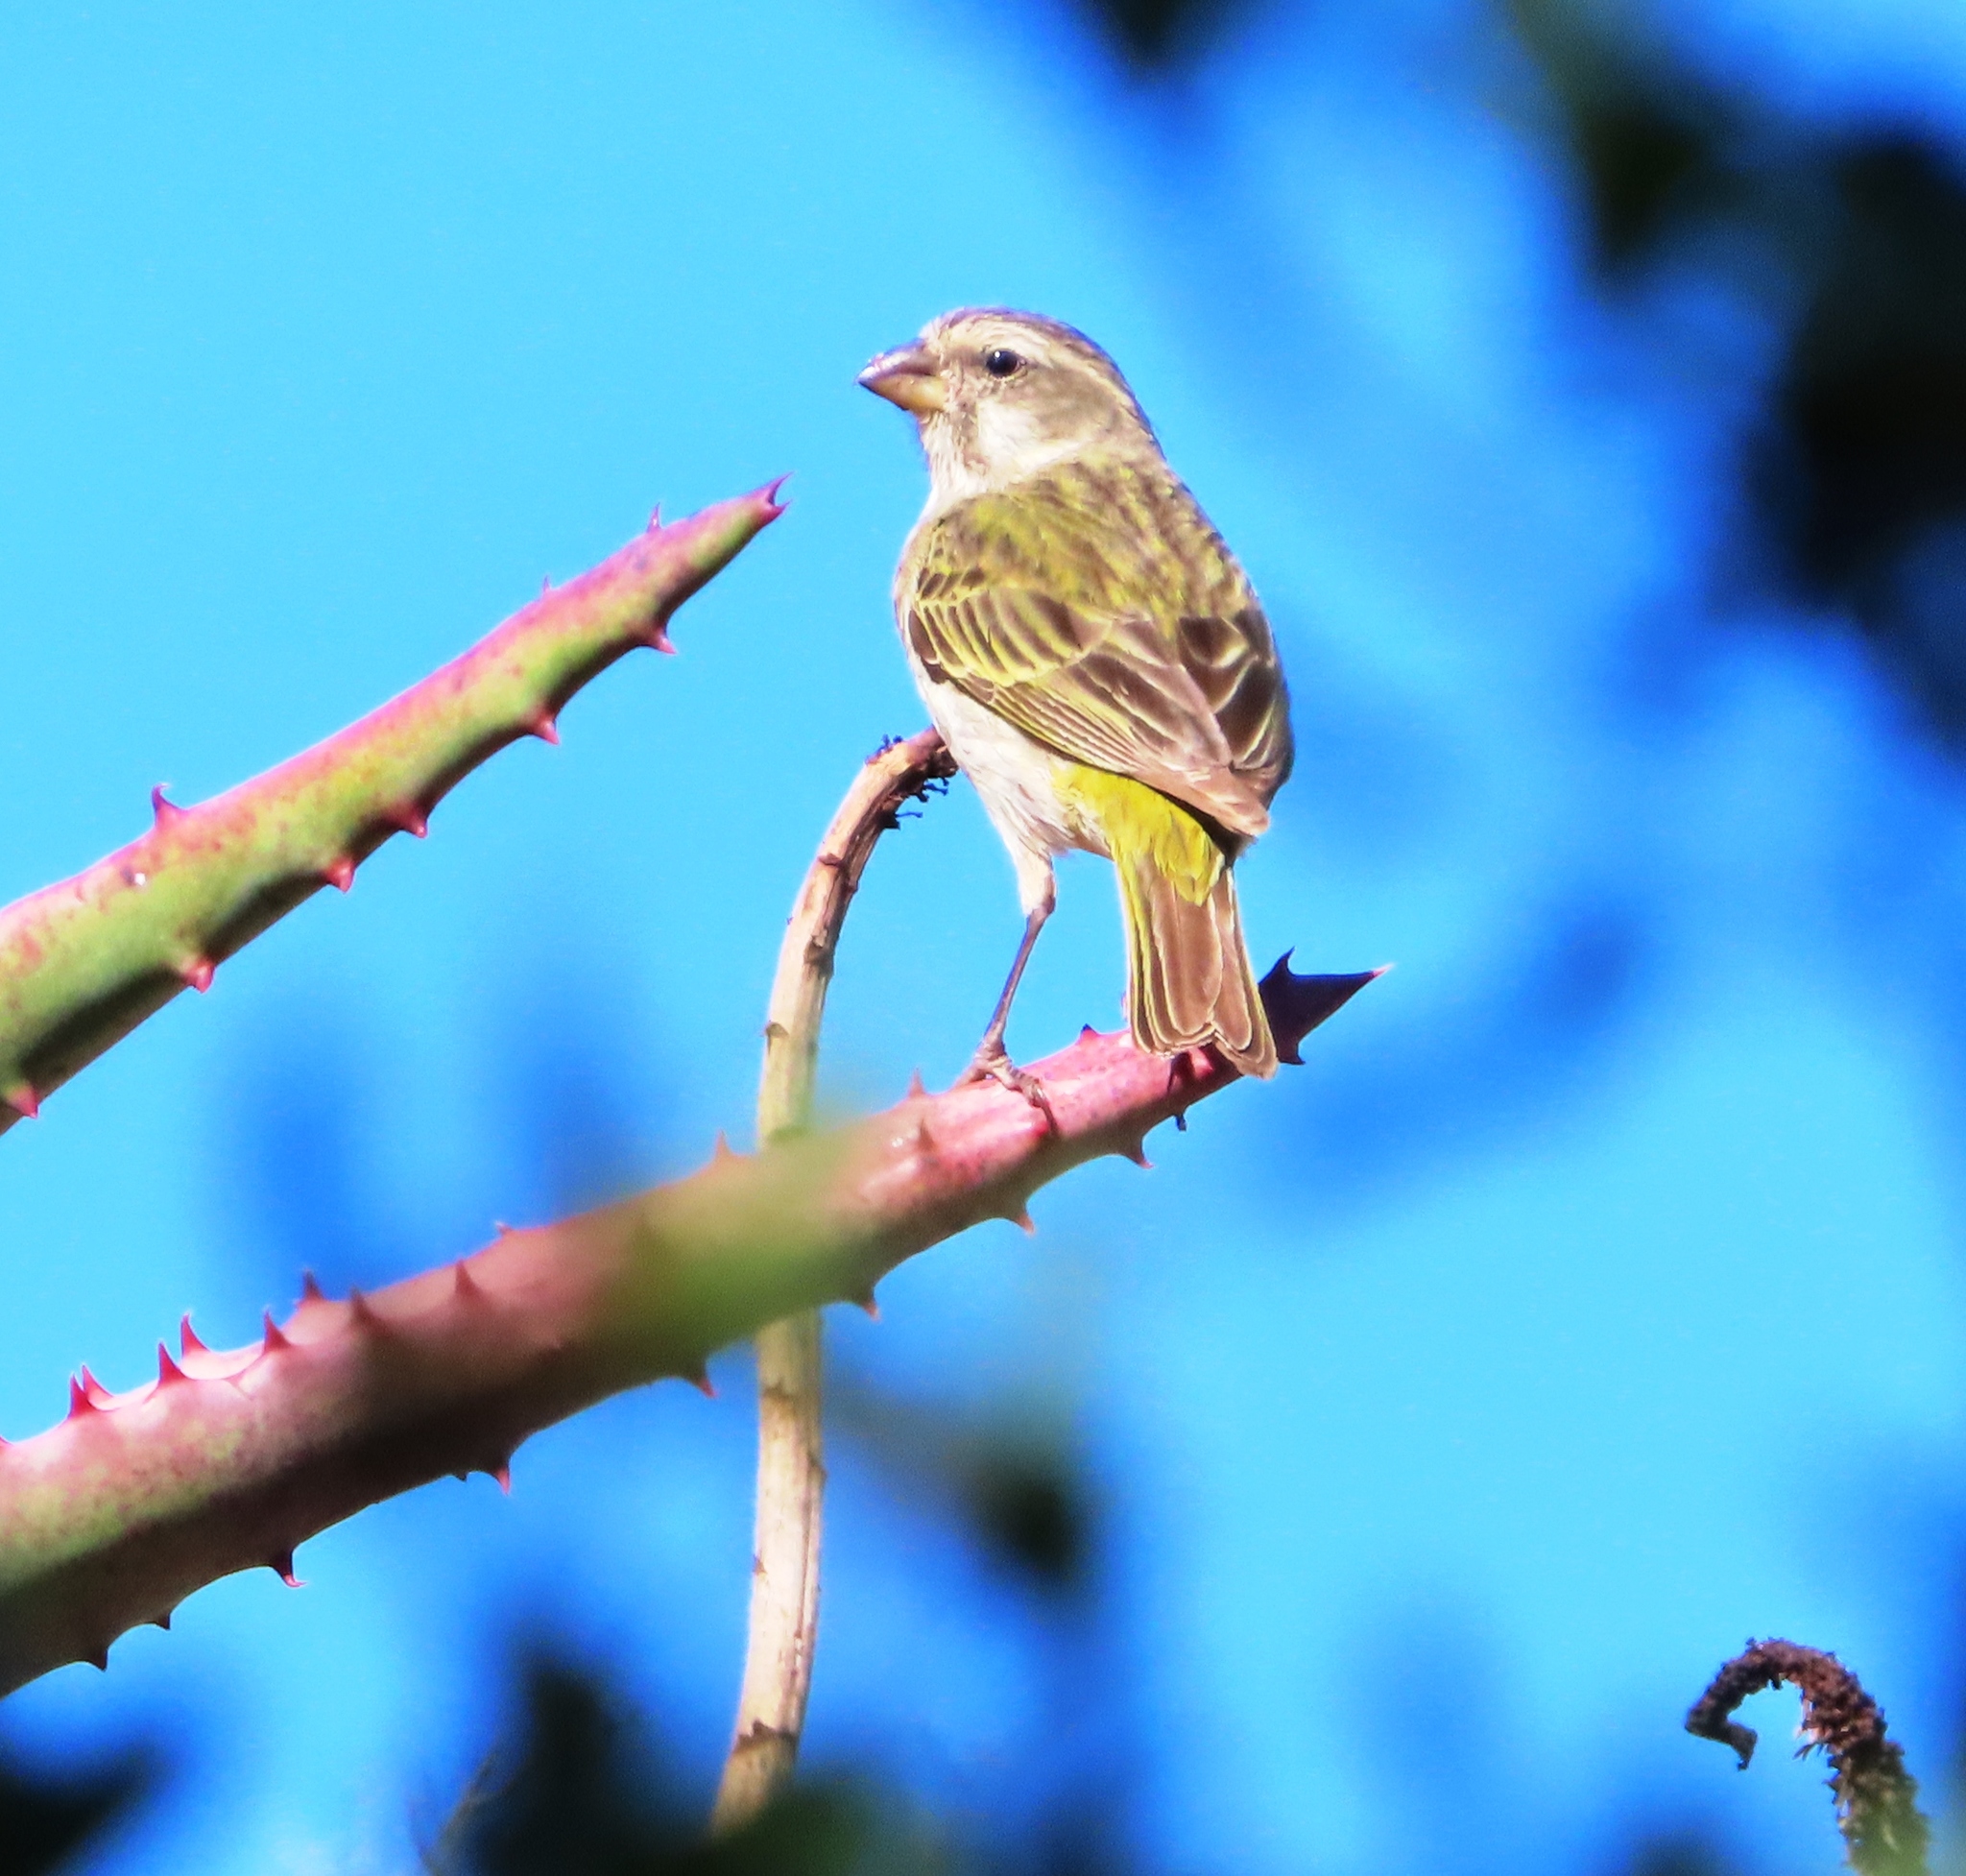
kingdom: Animalia
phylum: Chordata
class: Aves
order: Passeriformes
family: Fringillidae
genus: Crithagra
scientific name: Crithagra albogularis
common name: White-throated canary
